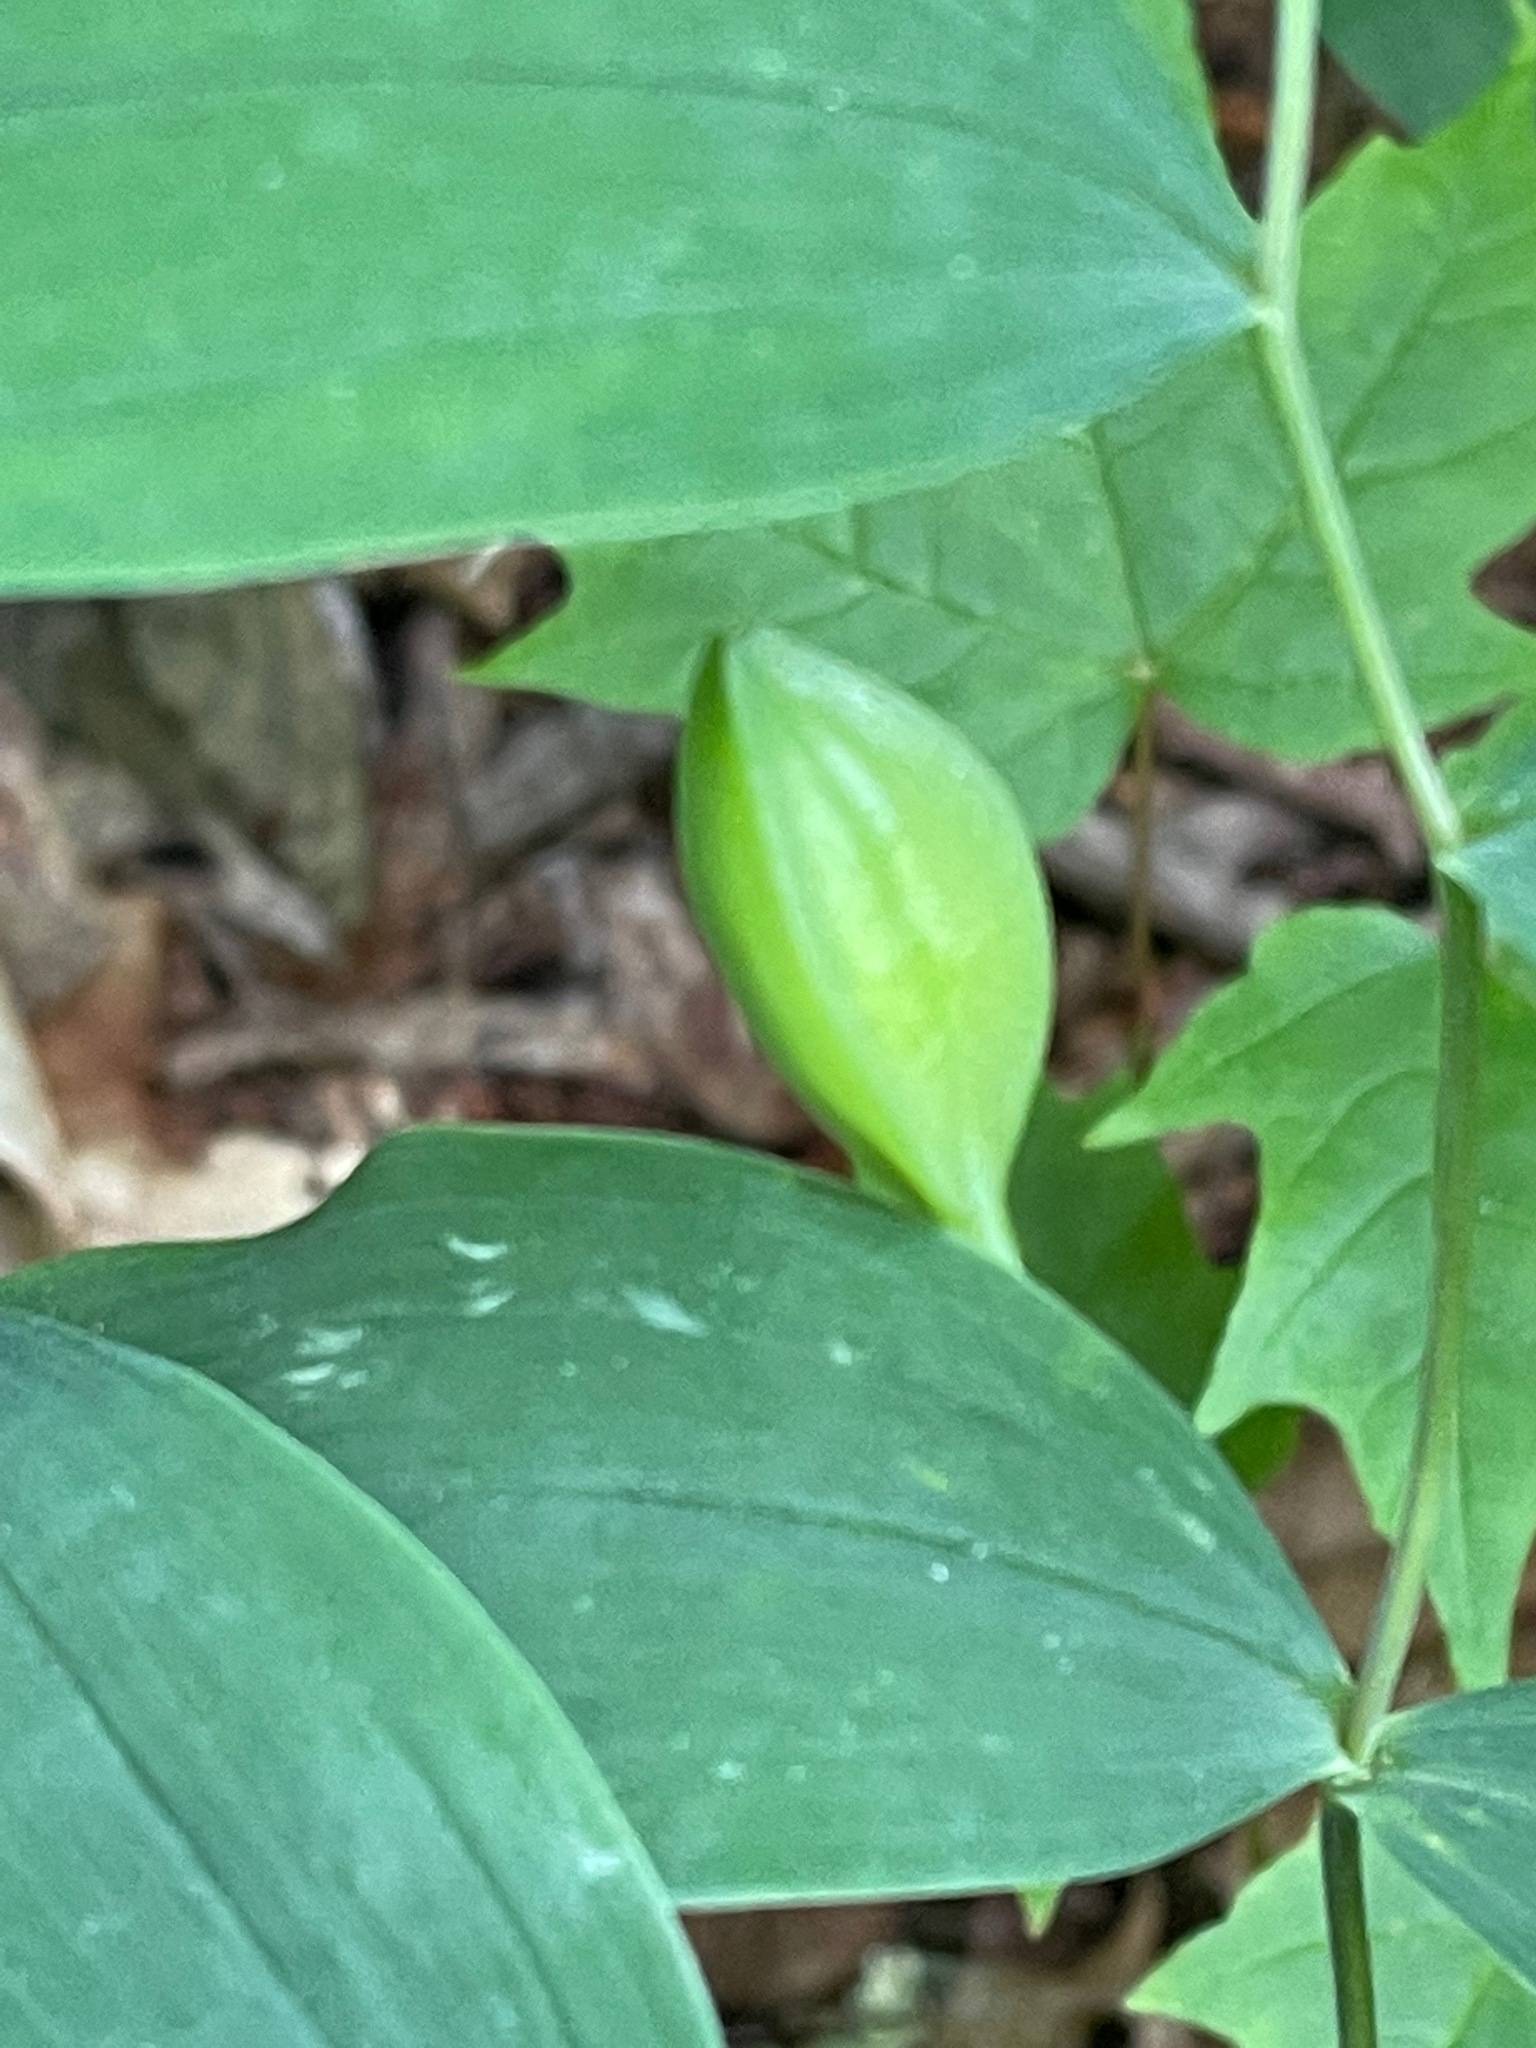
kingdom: Plantae
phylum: Tracheophyta
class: Liliopsida
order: Liliales
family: Colchicaceae
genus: Uvularia
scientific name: Uvularia sessilifolia
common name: Straw-lily
